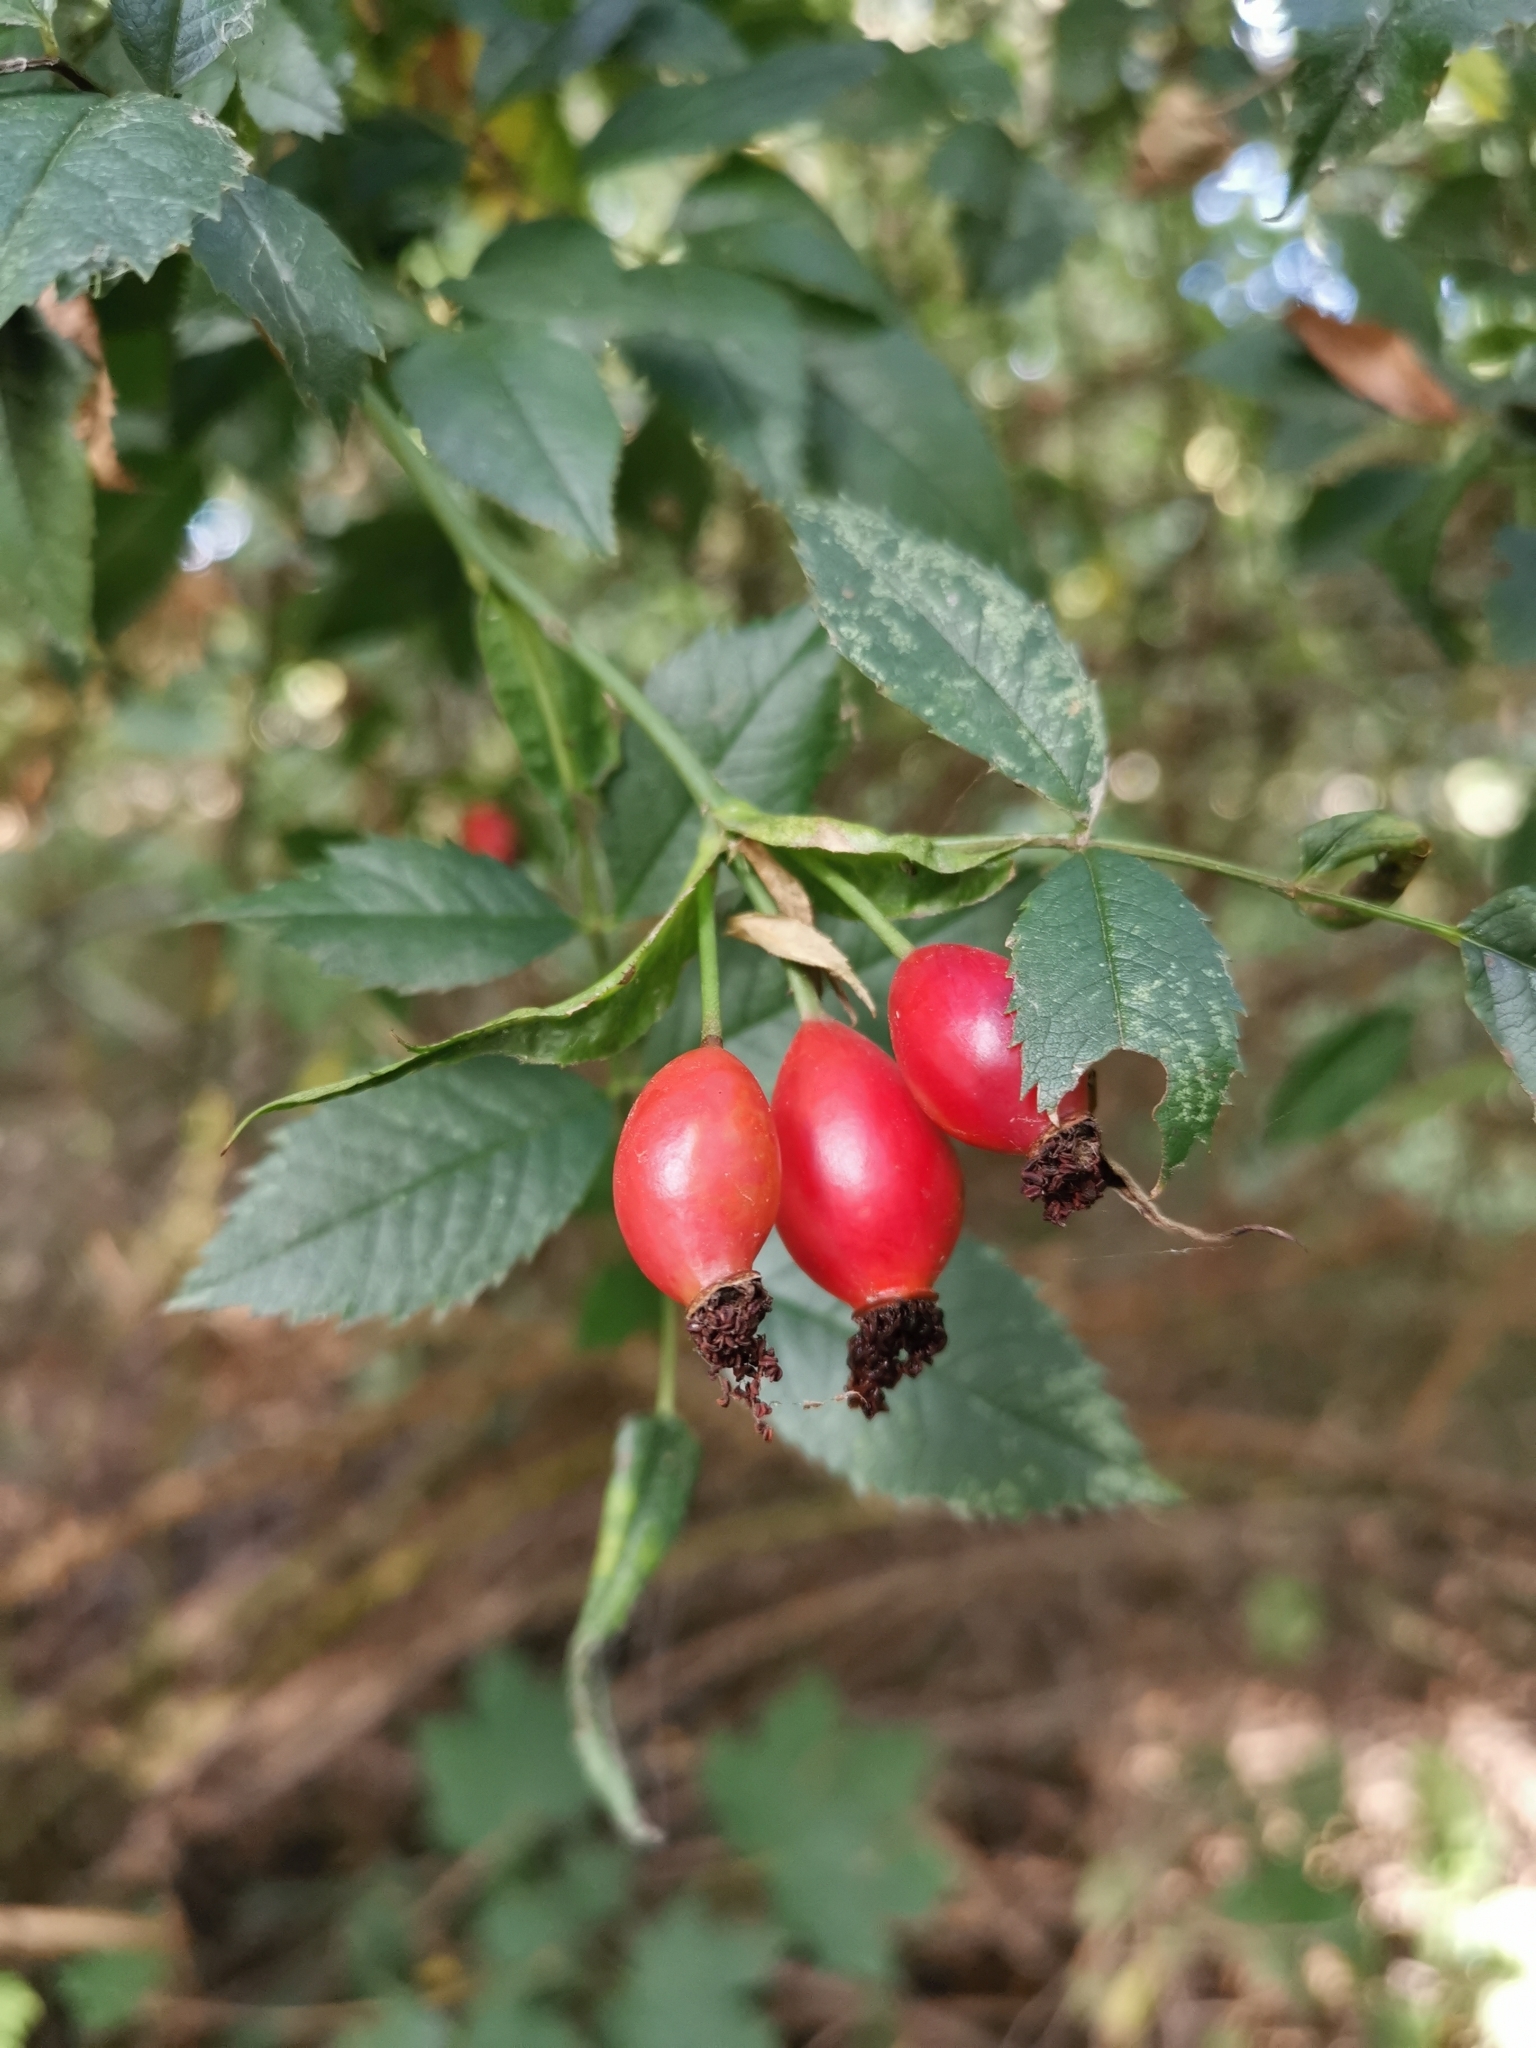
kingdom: Plantae
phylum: Tracheophyta
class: Magnoliopsida
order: Rosales
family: Rosaceae
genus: Rosa
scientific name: Rosa canina
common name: Dog rose
